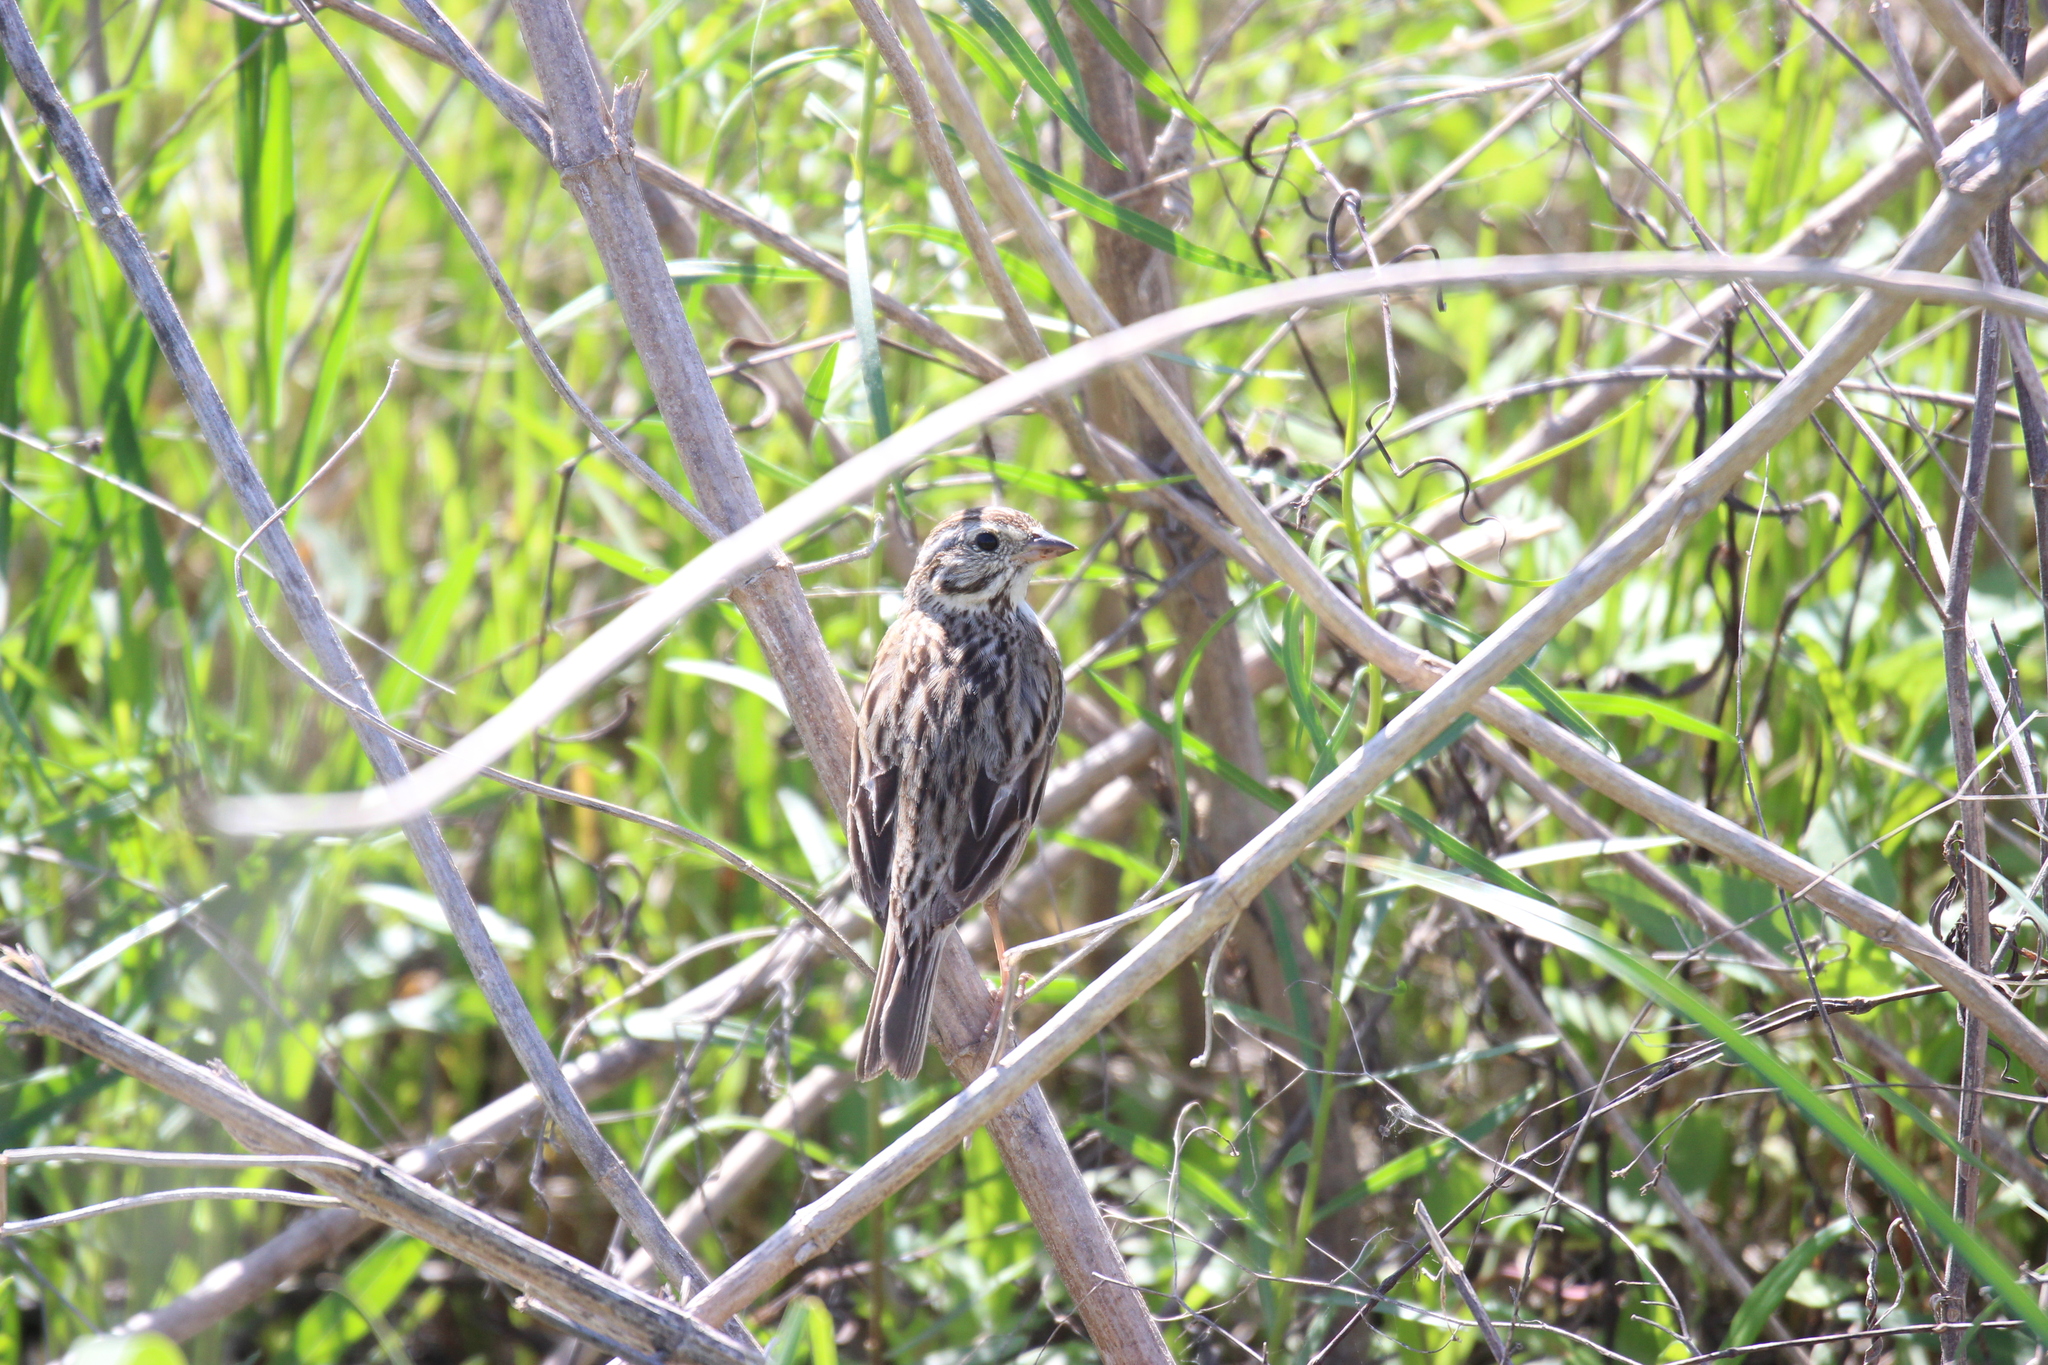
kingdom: Animalia
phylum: Chordata
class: Aves
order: Passeriformes
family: Passerellidae
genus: Passerculus
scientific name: Passerculus sandwichensis
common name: Savannah sparrow
